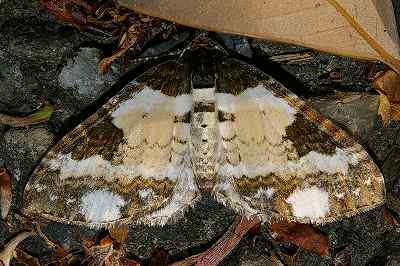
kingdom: Animalia
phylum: Arthropoda
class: Insecta
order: Lepidoptera
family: Geometridae
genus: Melanthia
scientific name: Melanthia procellata
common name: Pretty chalk carpet
